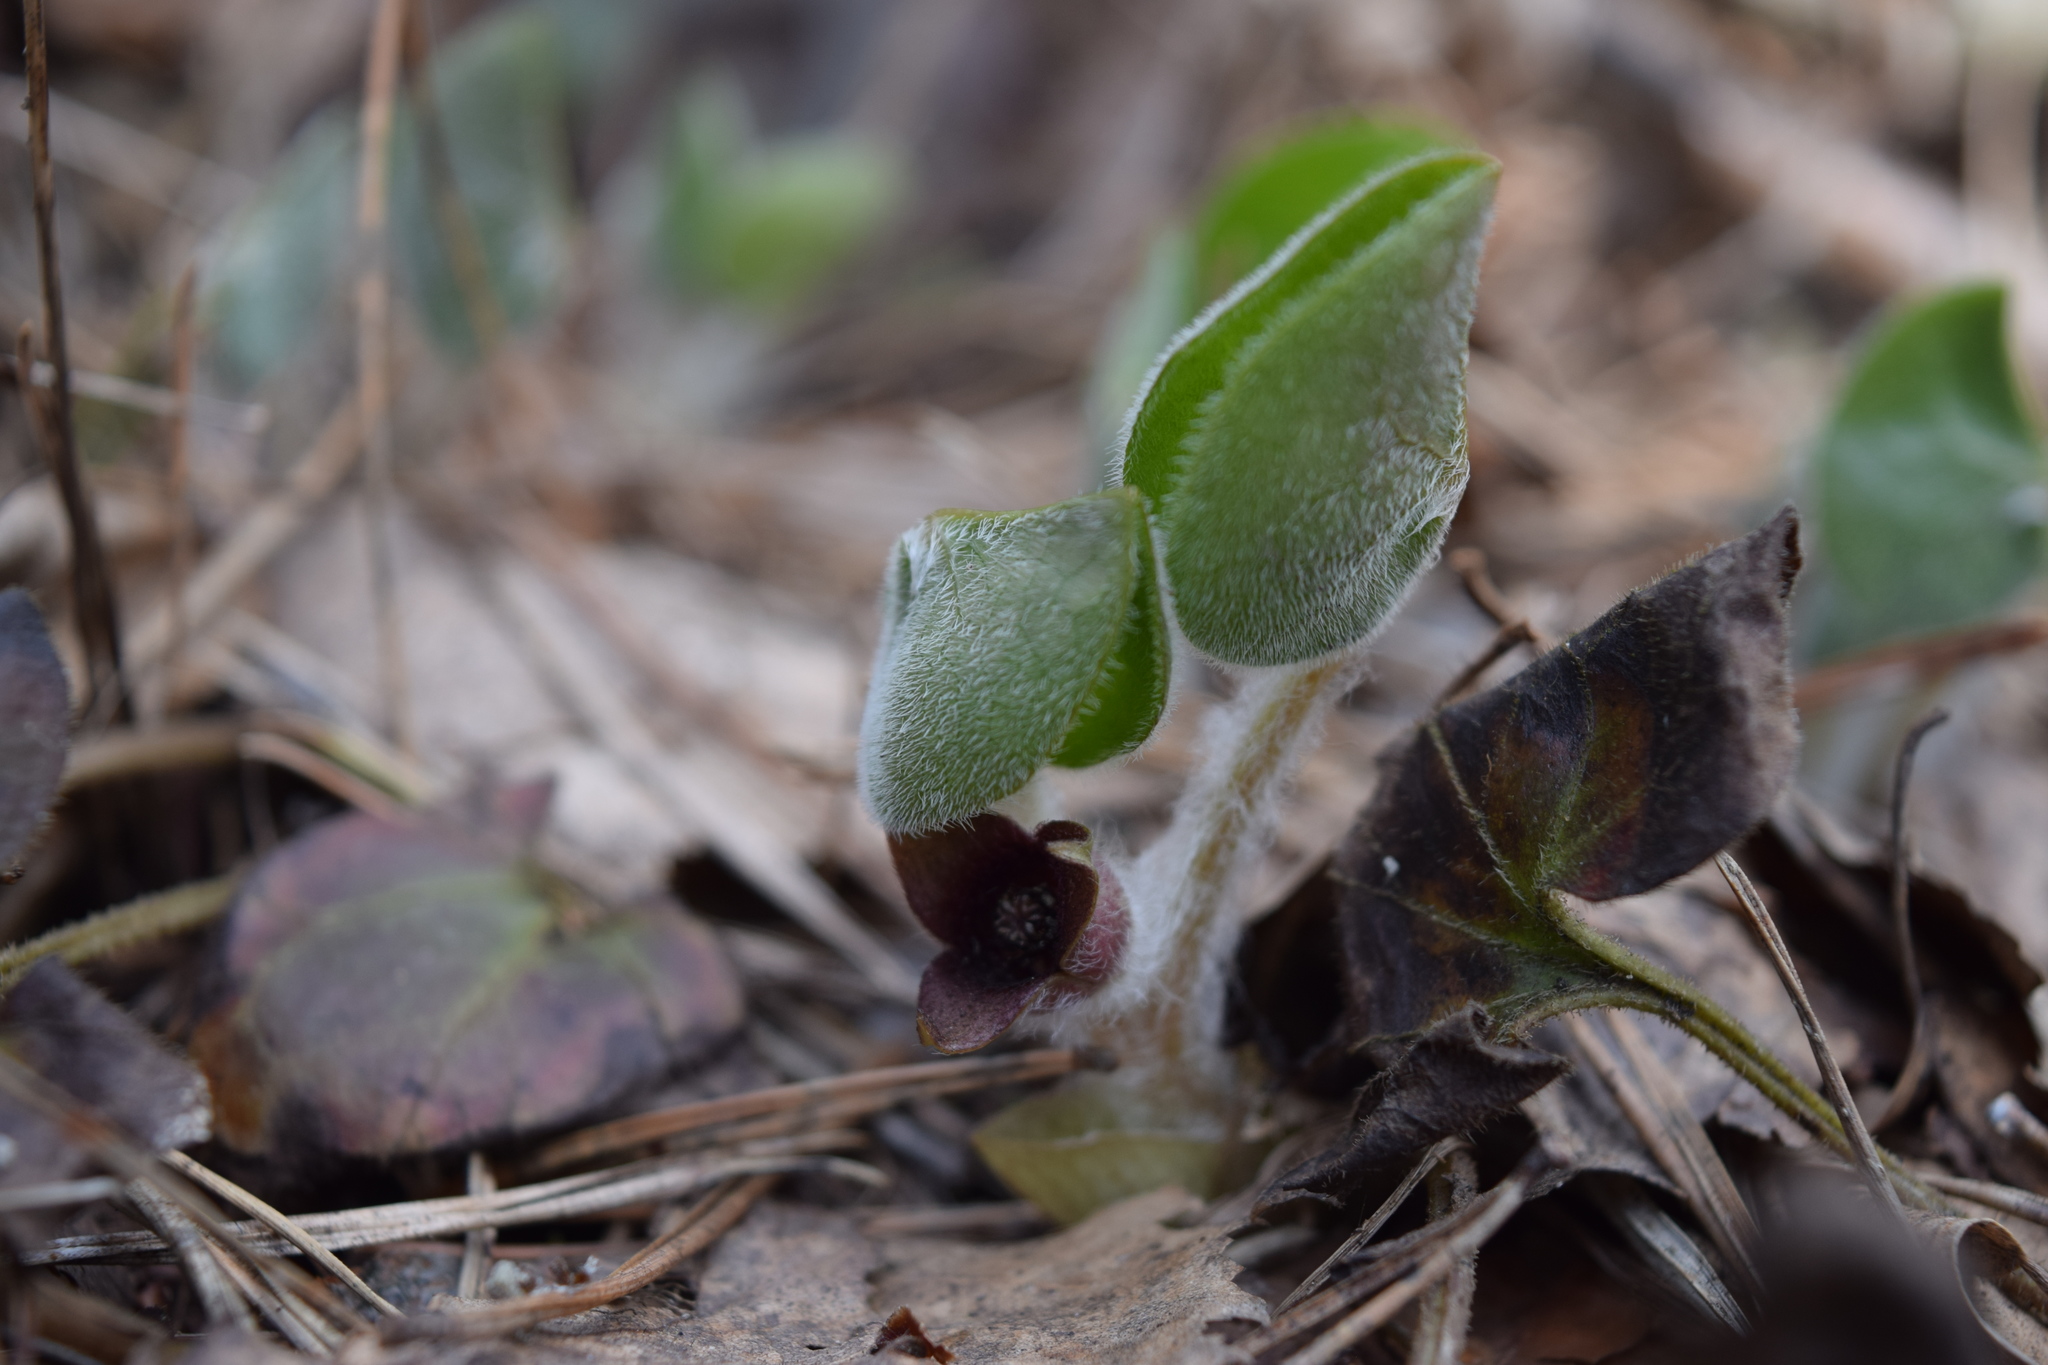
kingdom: Plantae
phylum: Tracheophyta
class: Magnoliopsida
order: Piperales
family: Aristolochiaceae
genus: Asarum
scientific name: Asarum europaeum
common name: Asarabacca
